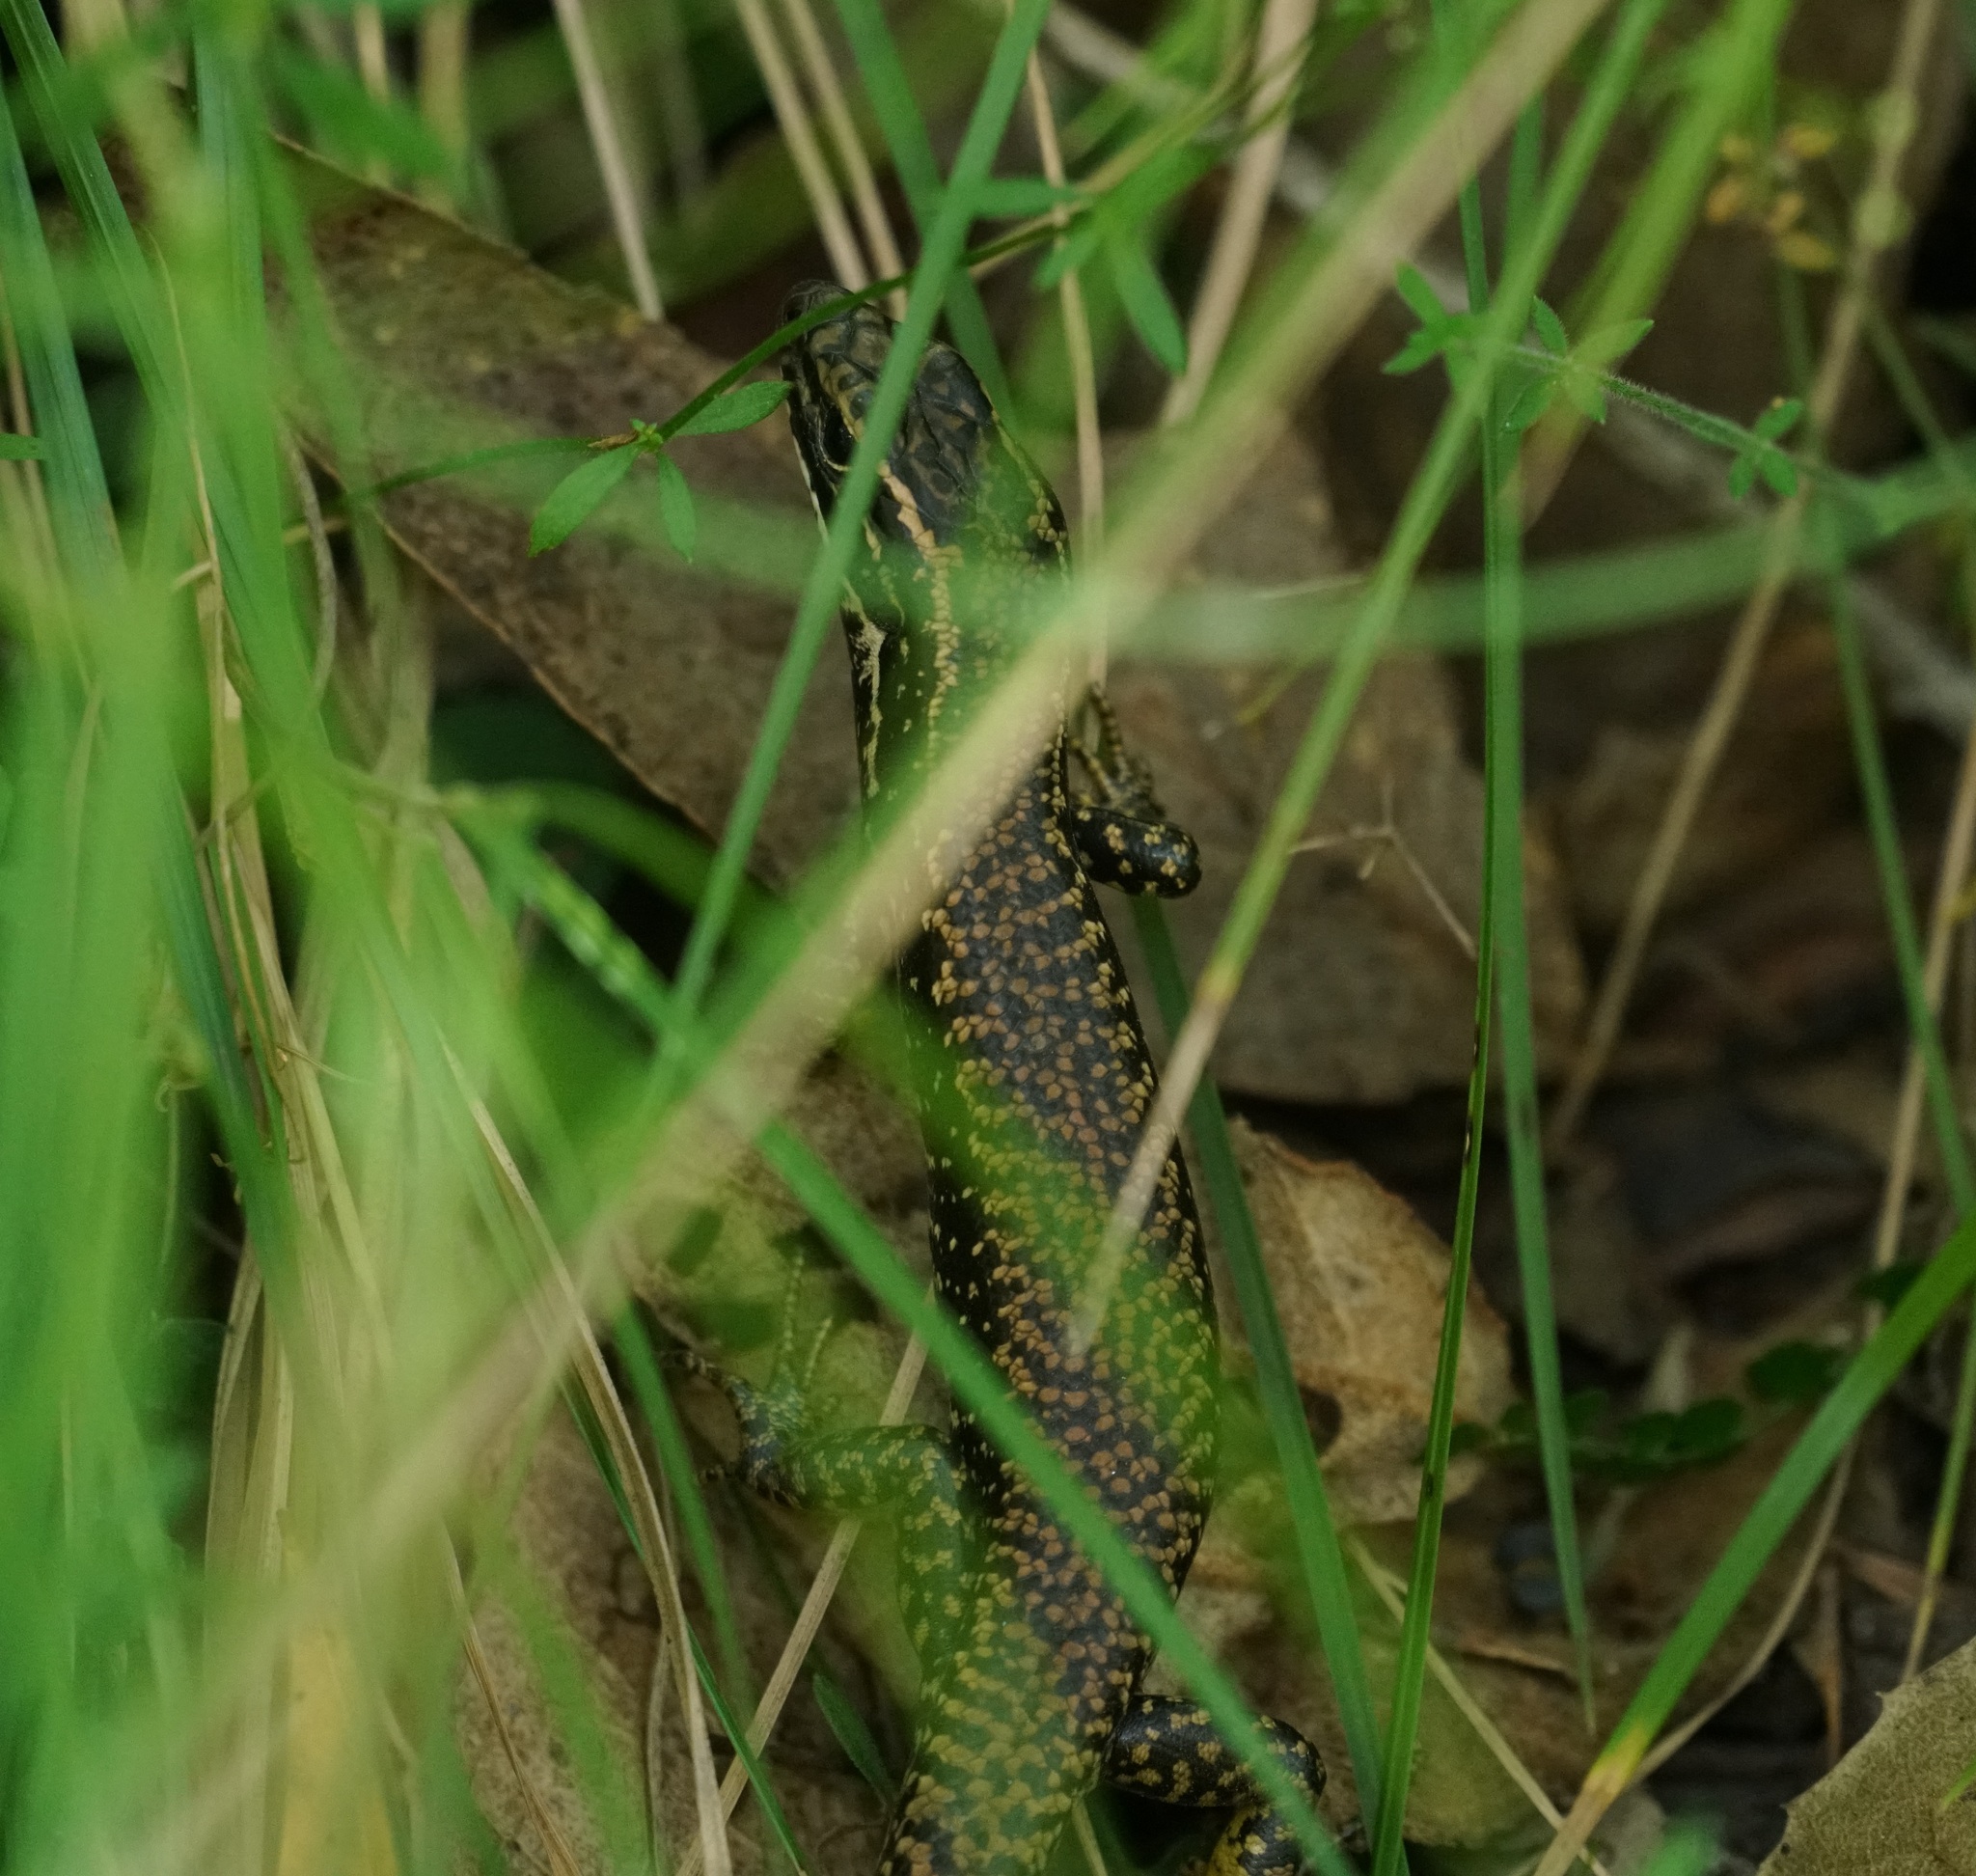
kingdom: Animalia
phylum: Chordata
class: Squamata
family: Scincidae
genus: Eulamprus
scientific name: Eulamprus heatwolei
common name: Warm-temperate water-skink
